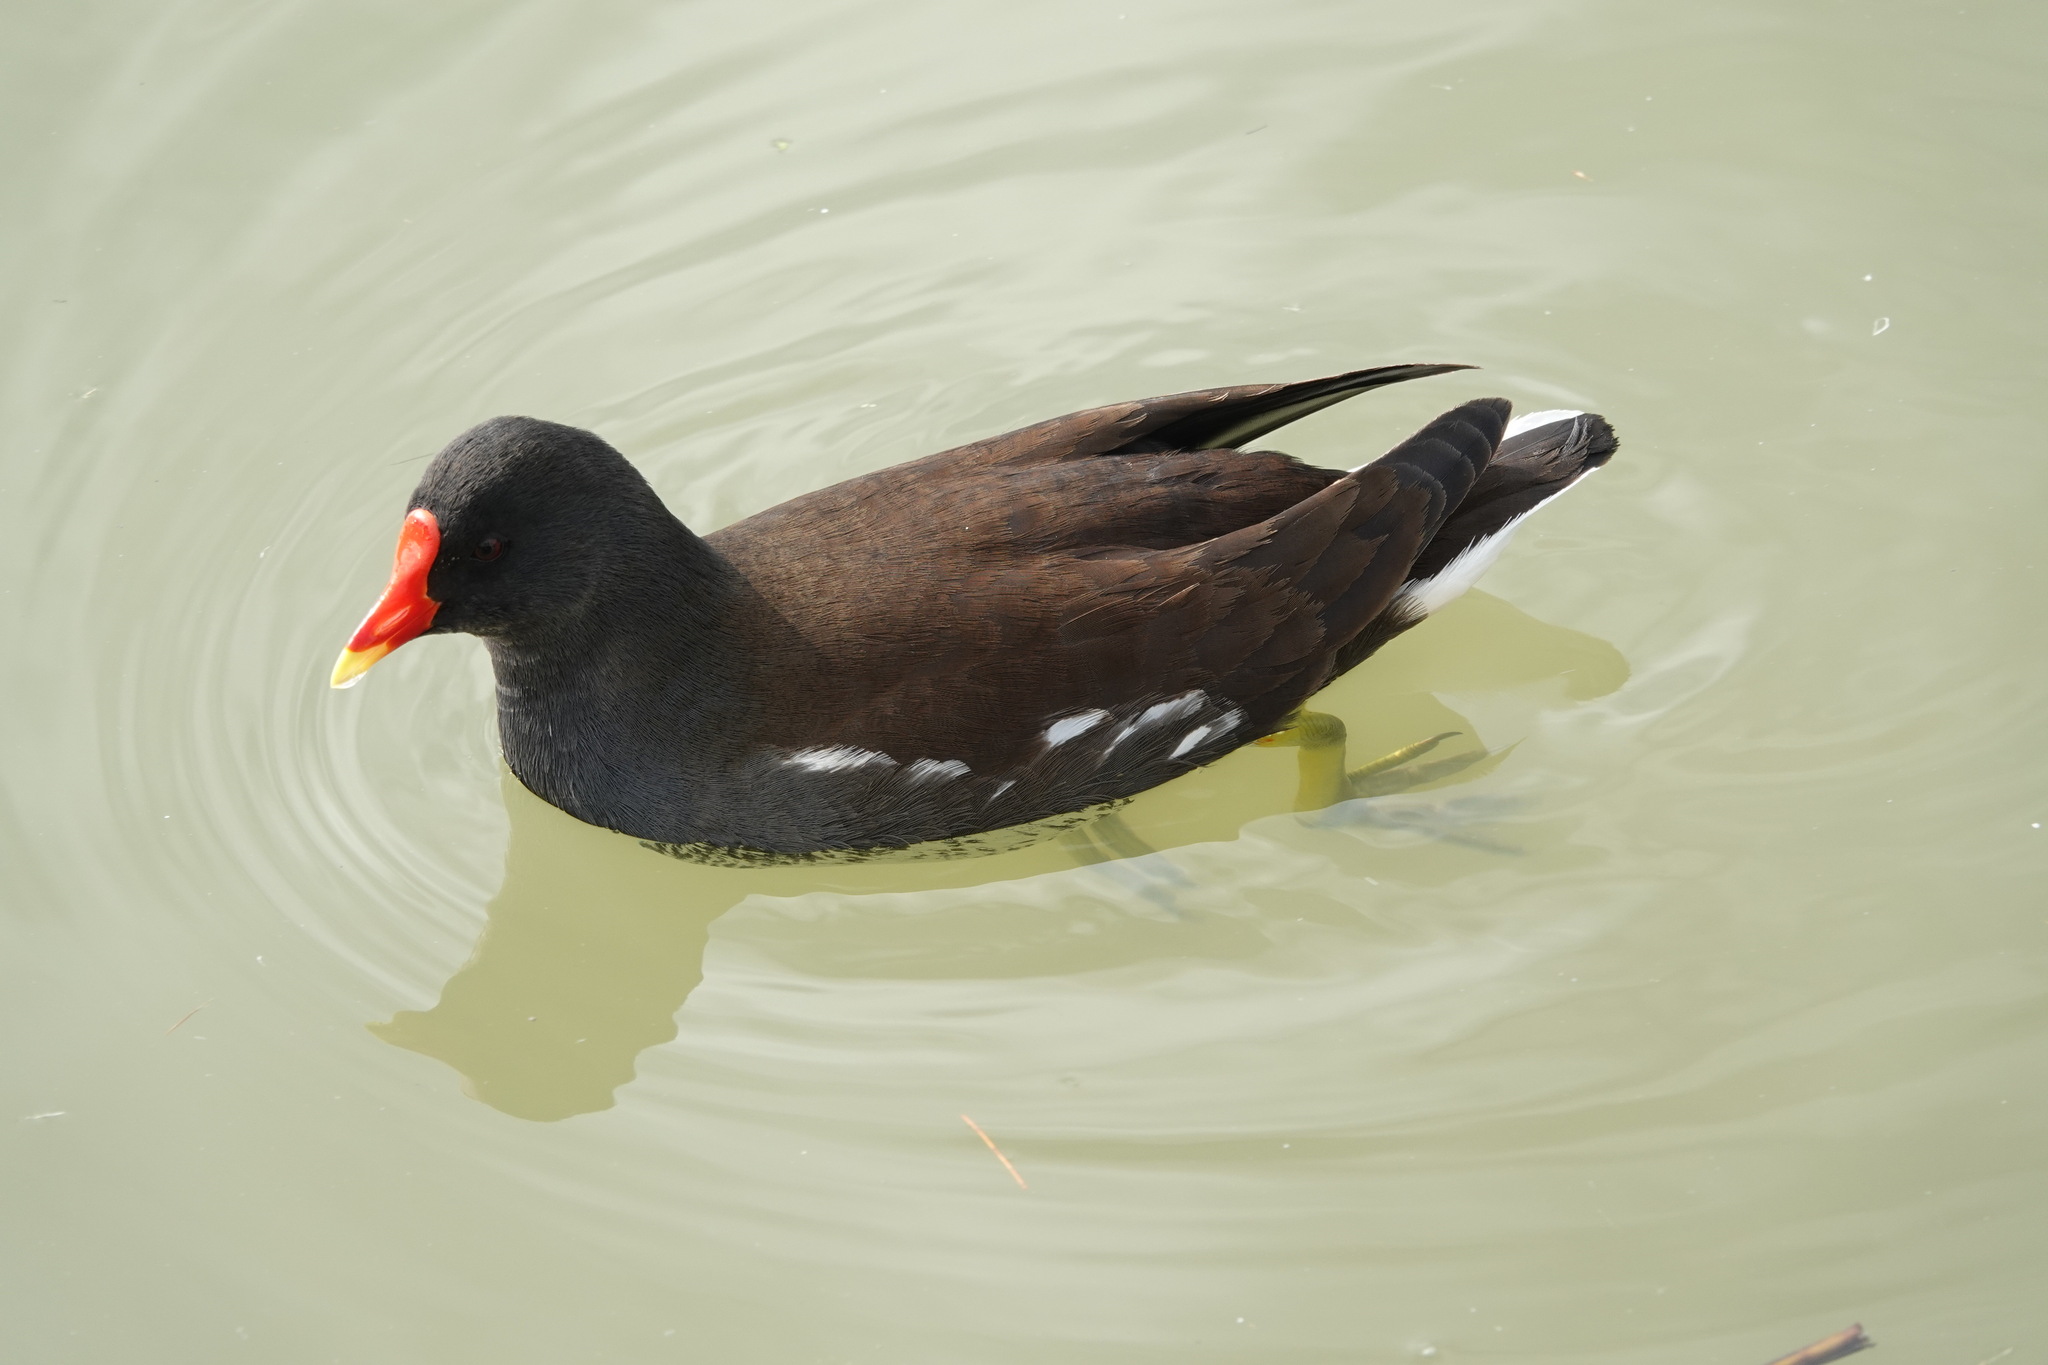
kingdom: Animalia
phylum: Chordata
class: Aves
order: Gruiformes
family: Rallidae
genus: Gallinula
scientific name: Gallinula chloropus
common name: Common moorhen
